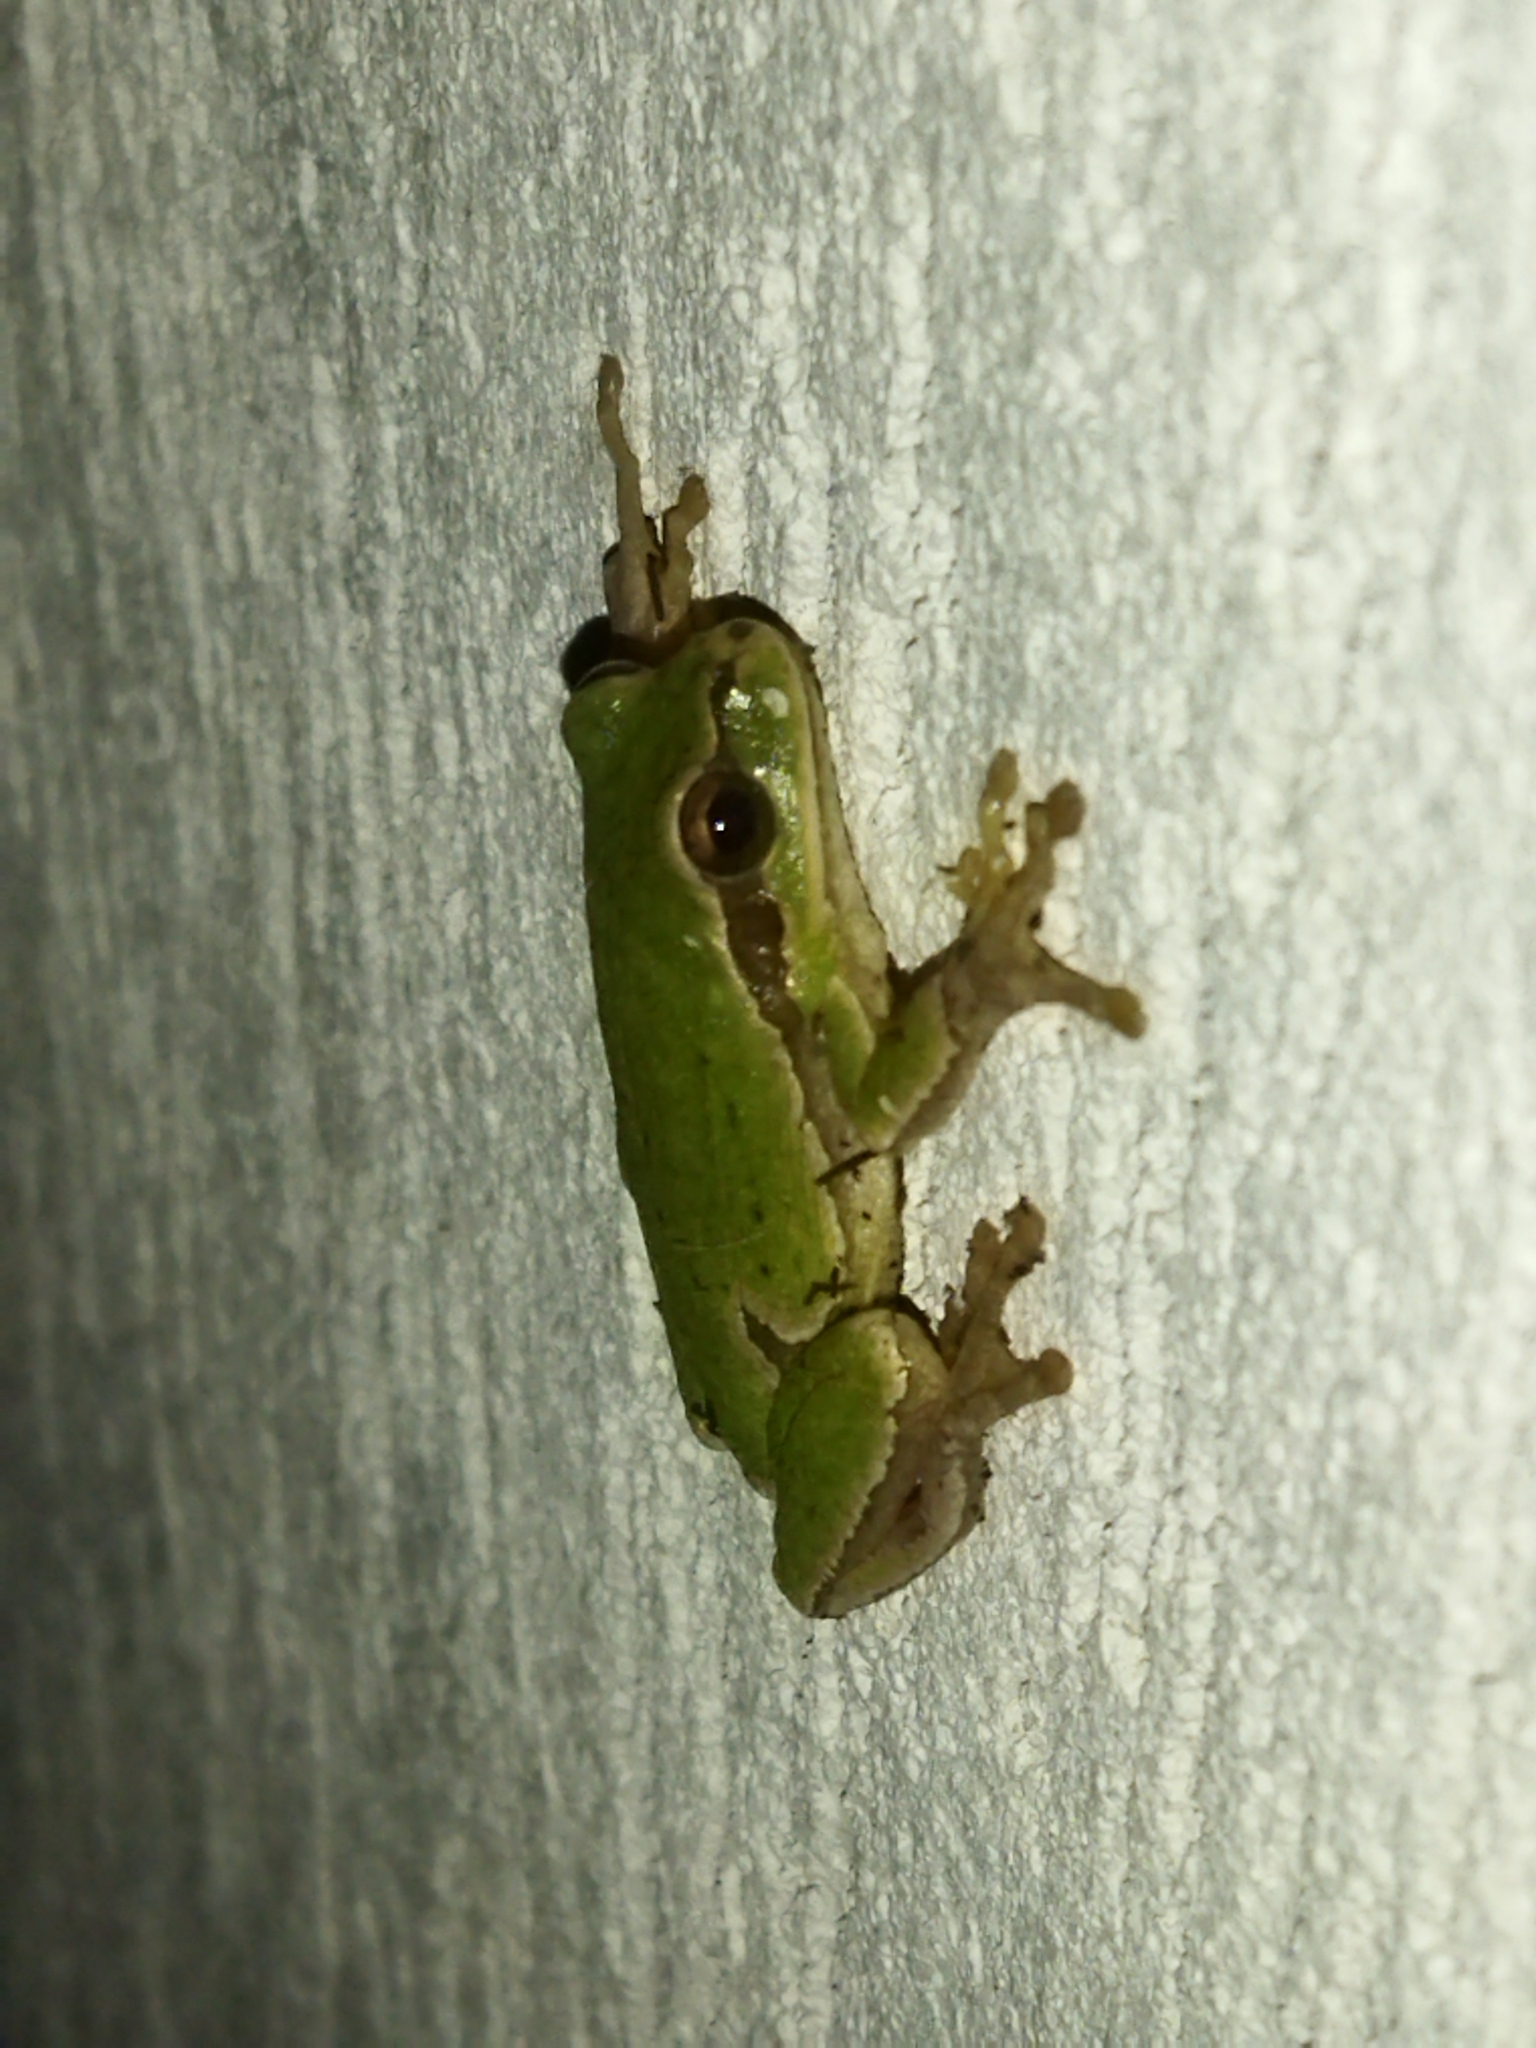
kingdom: Animalia
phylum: Chordata
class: Amphibia
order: Anura
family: Hylidae
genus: Hyla
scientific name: Hyla orientalis
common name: Caucasian treefrog
